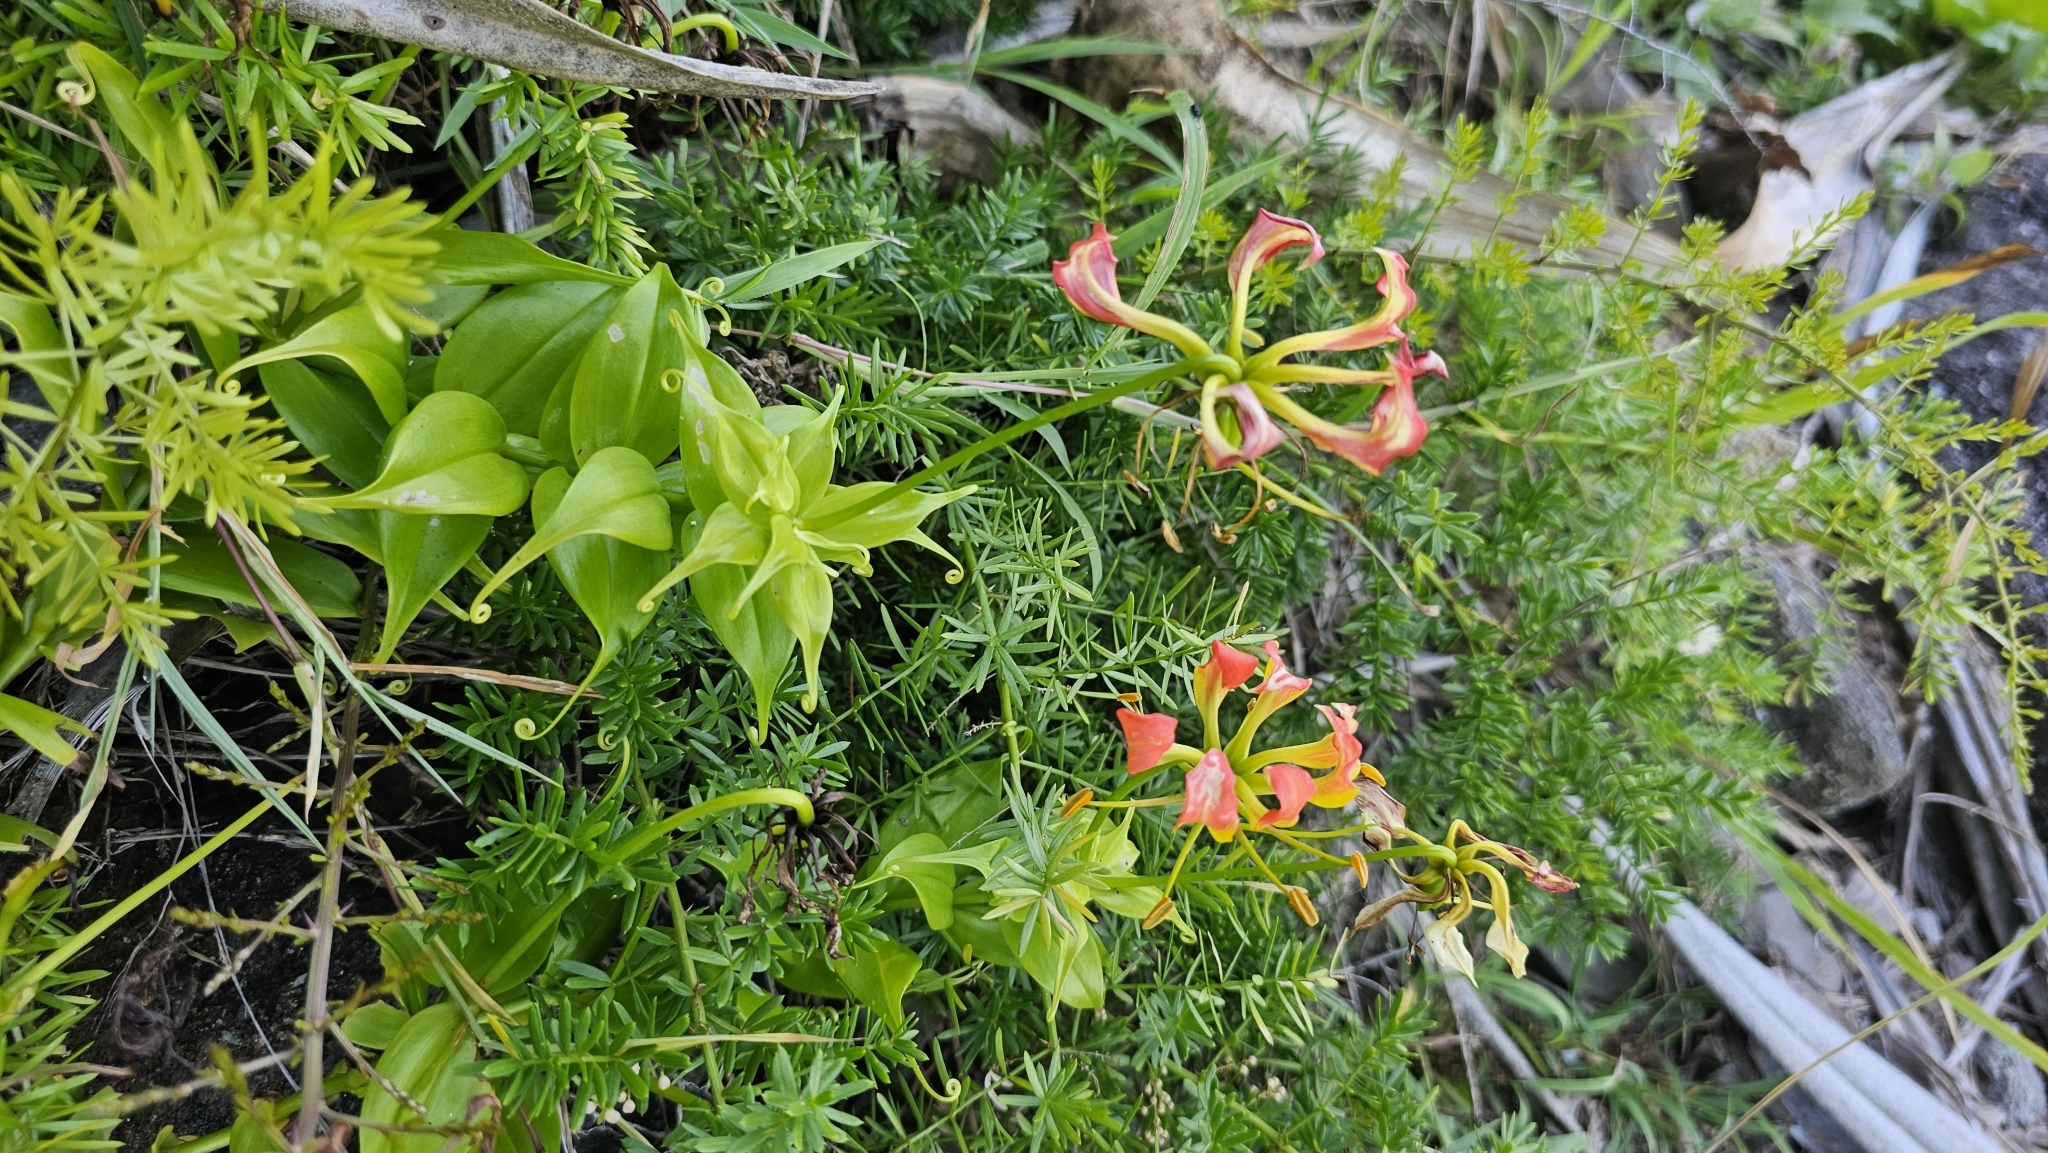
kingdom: Plantae
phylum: Tracheophyta
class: Liliopsida
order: Liliales
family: Colchicaceae
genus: Gloriosa
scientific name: Gloriosa superba
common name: Flame lily
